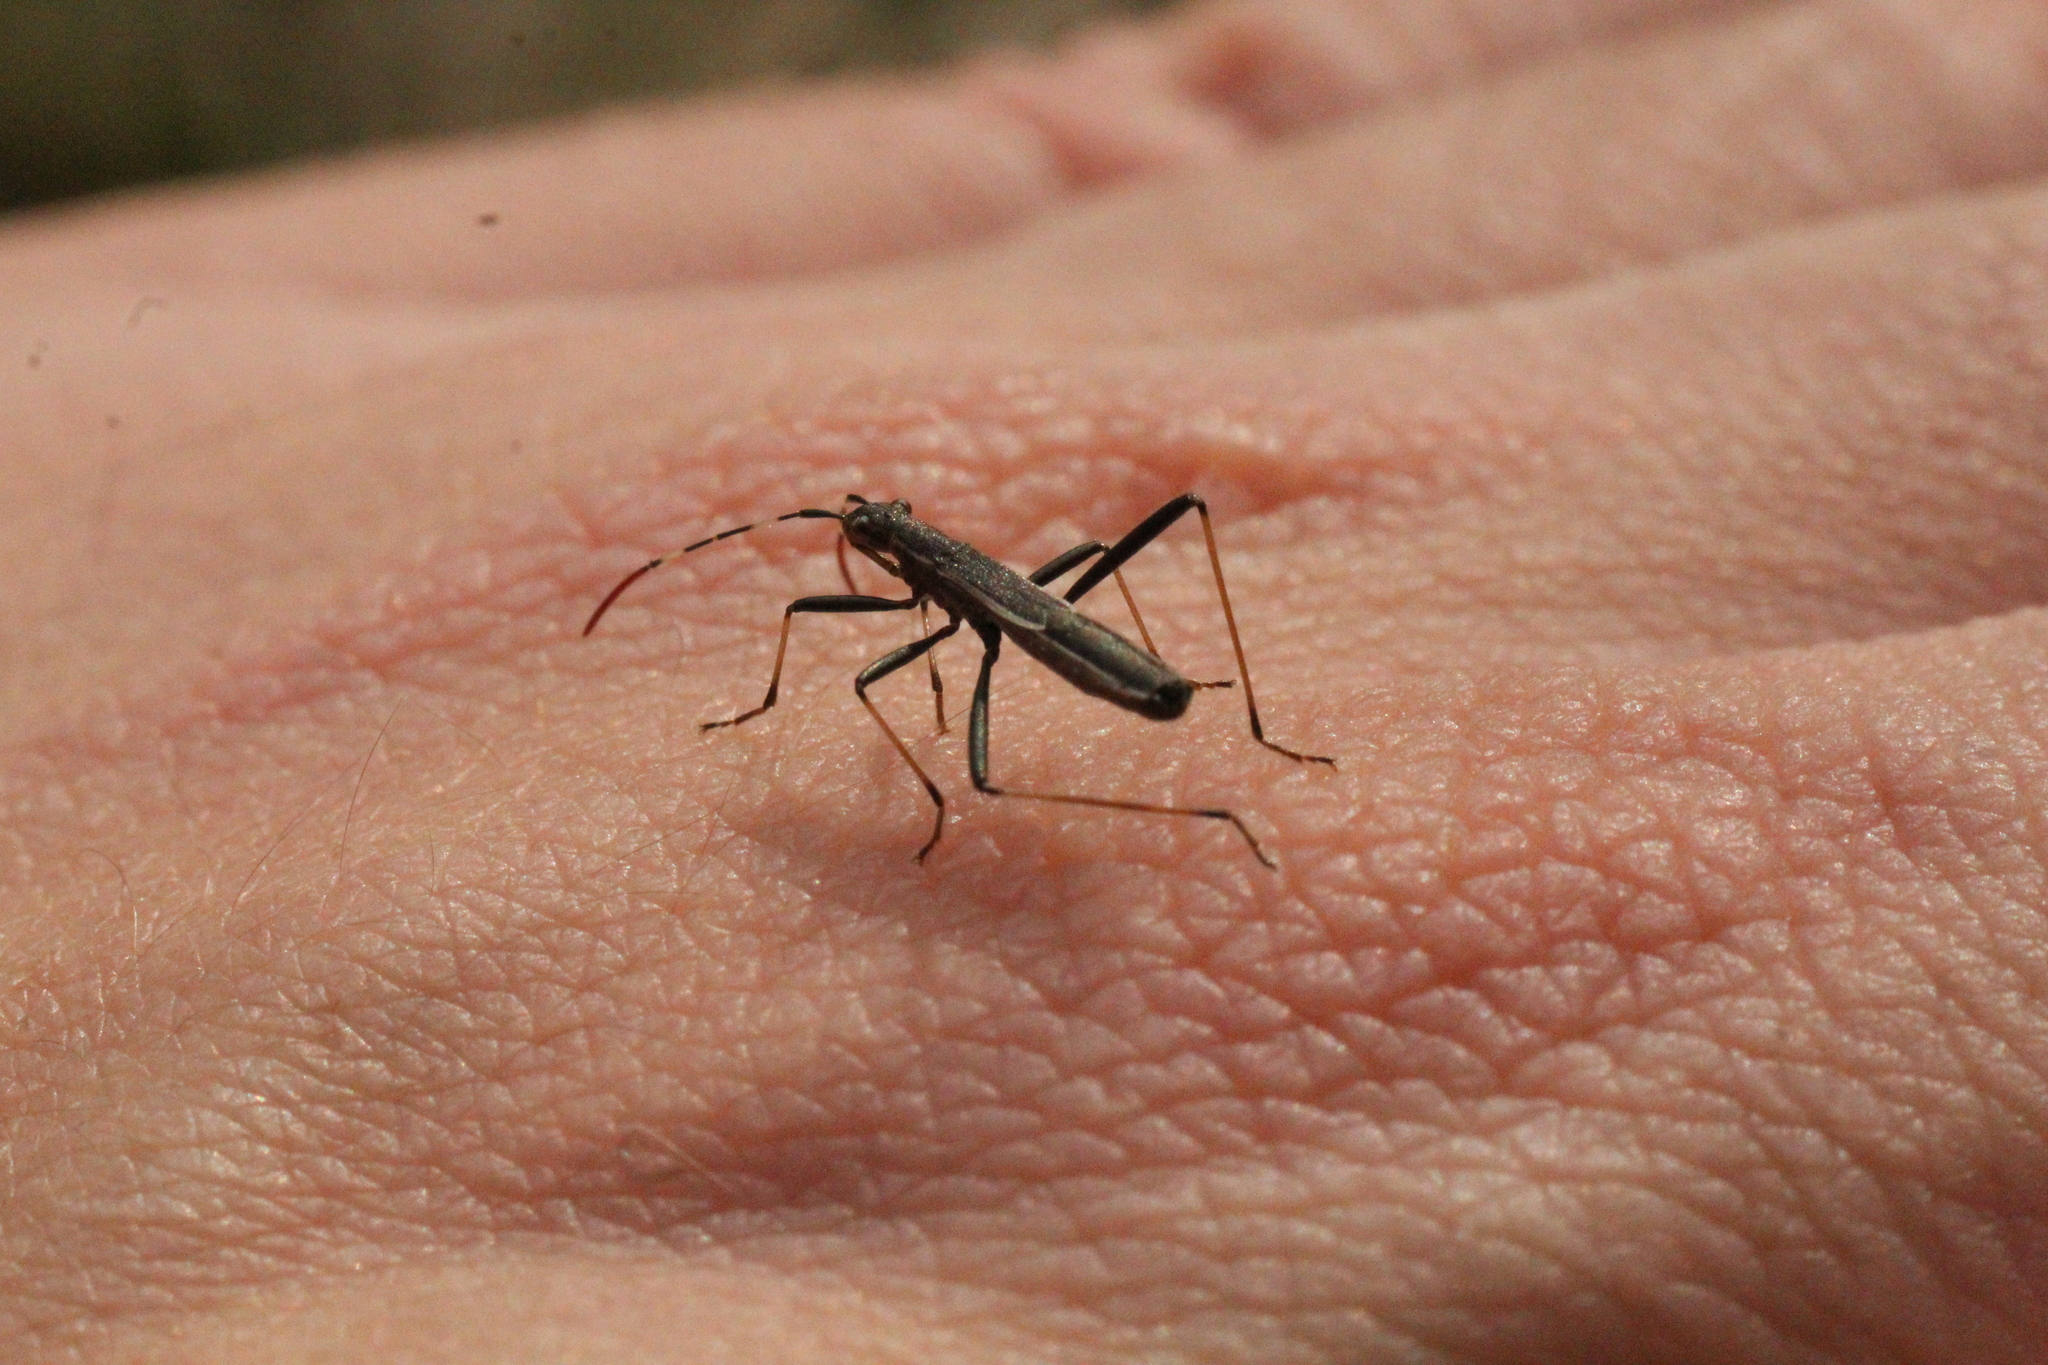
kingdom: Animalia
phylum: Arthropoda
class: Insecta
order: Hemiptera
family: Alydidae
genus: Micrelytra
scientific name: Micrelytra fossularum
